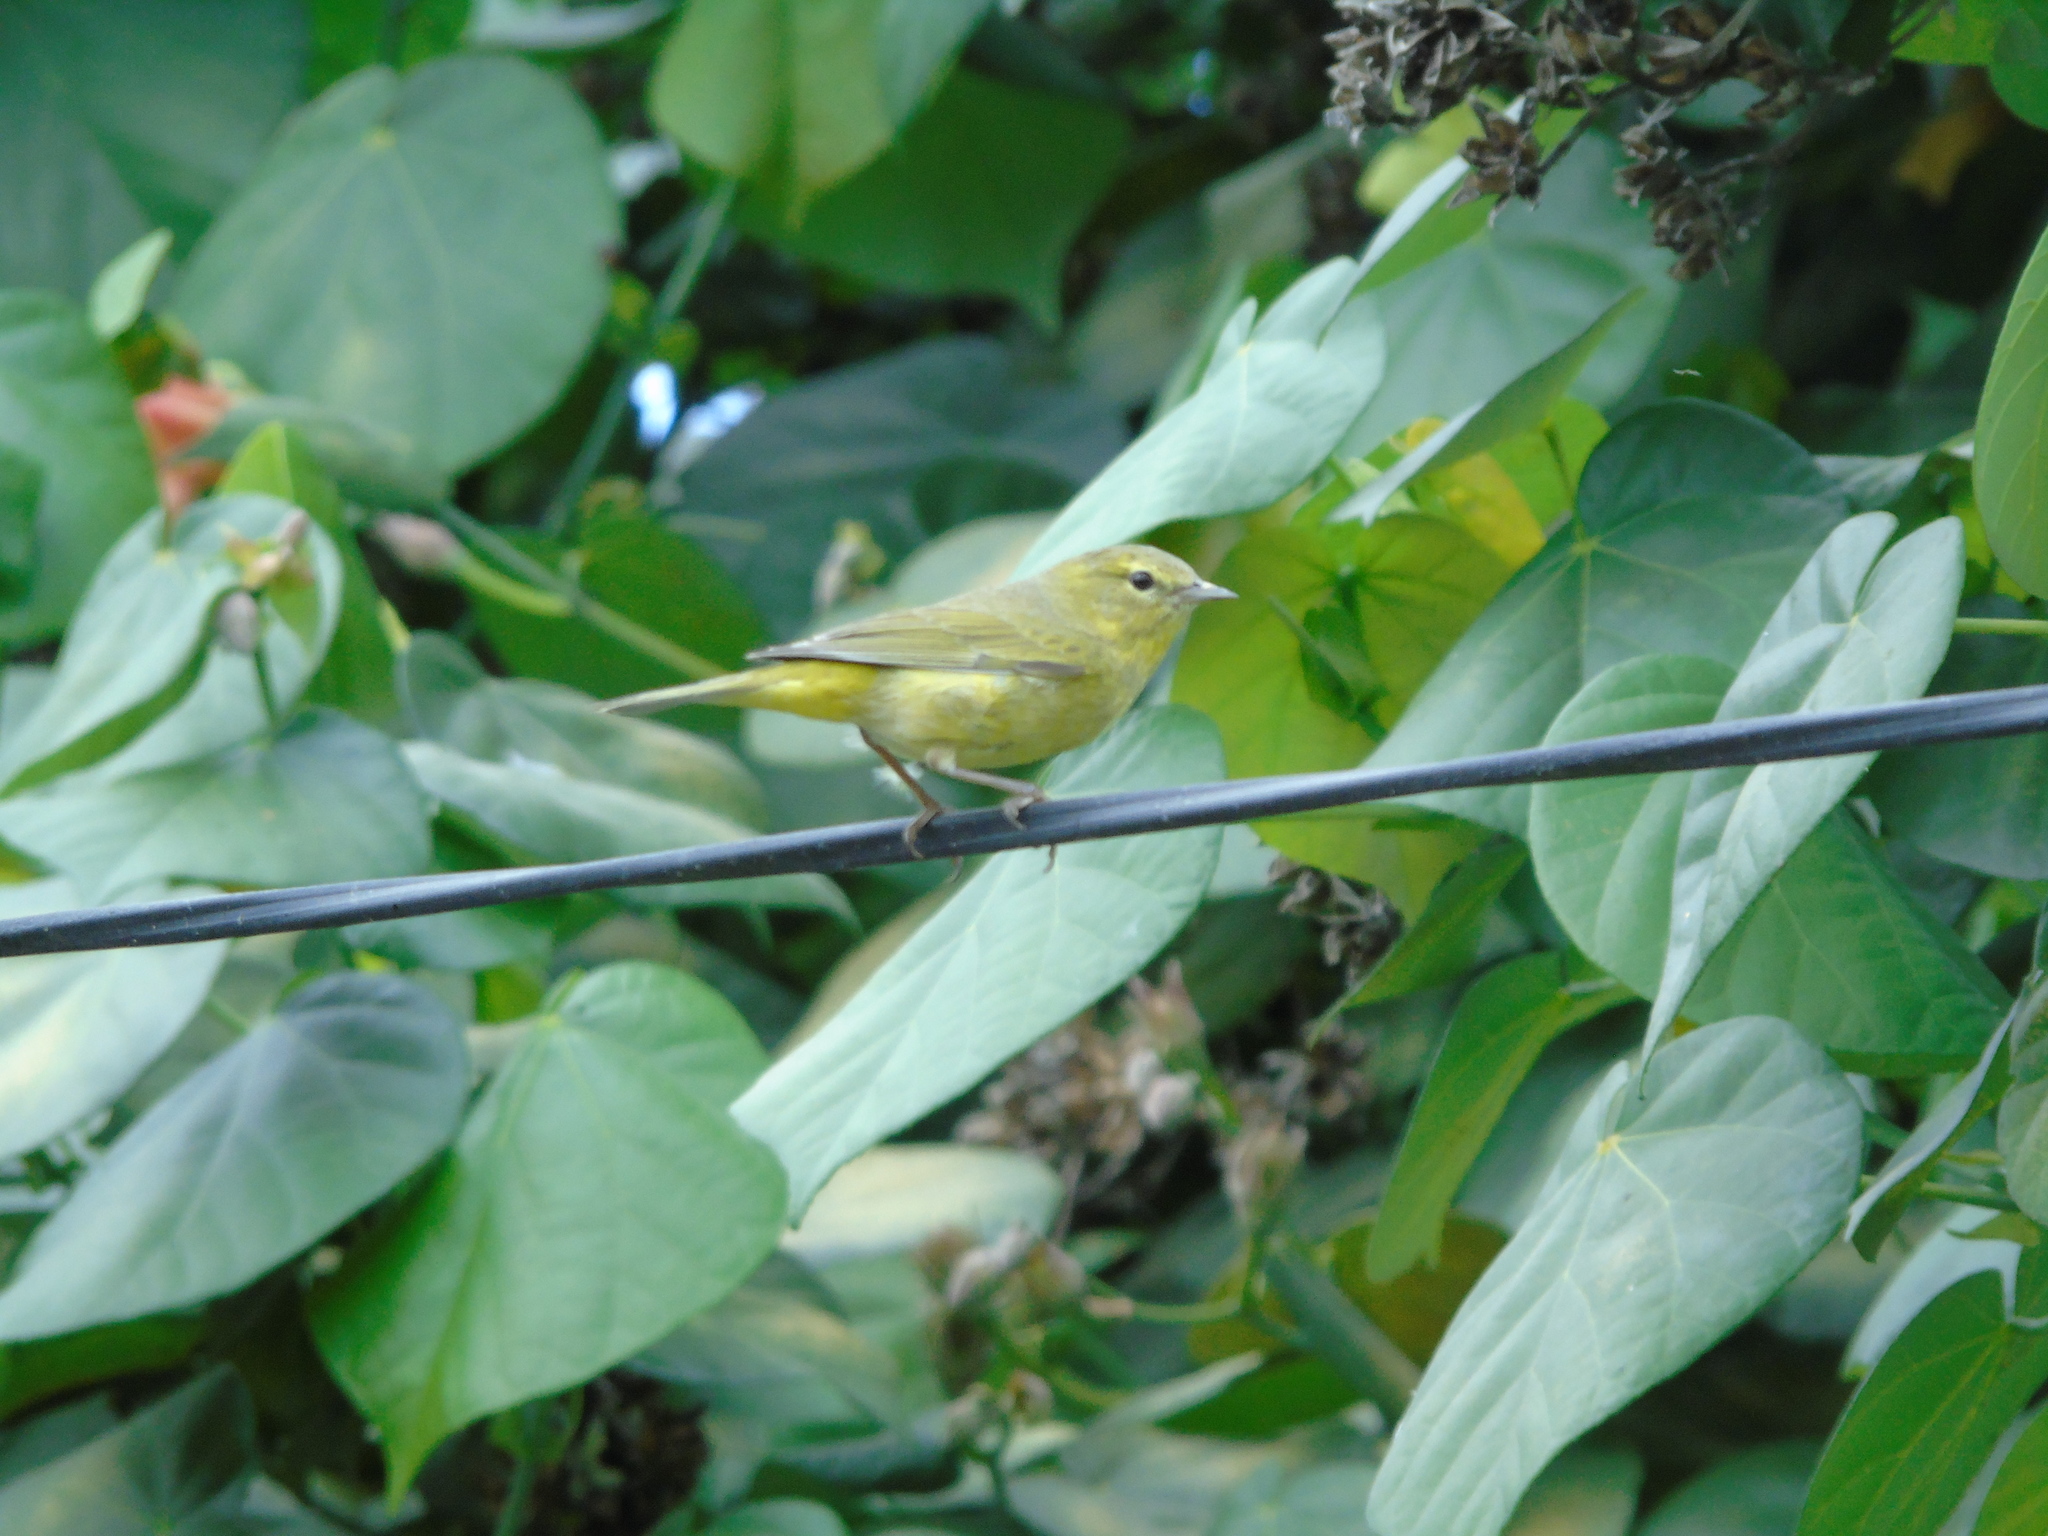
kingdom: Animalia
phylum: Chordata
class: Aves
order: Passeriformes
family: Parulidae
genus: Leiothlypis
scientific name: Leiothlypis celata
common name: Orange-crowned warbler
